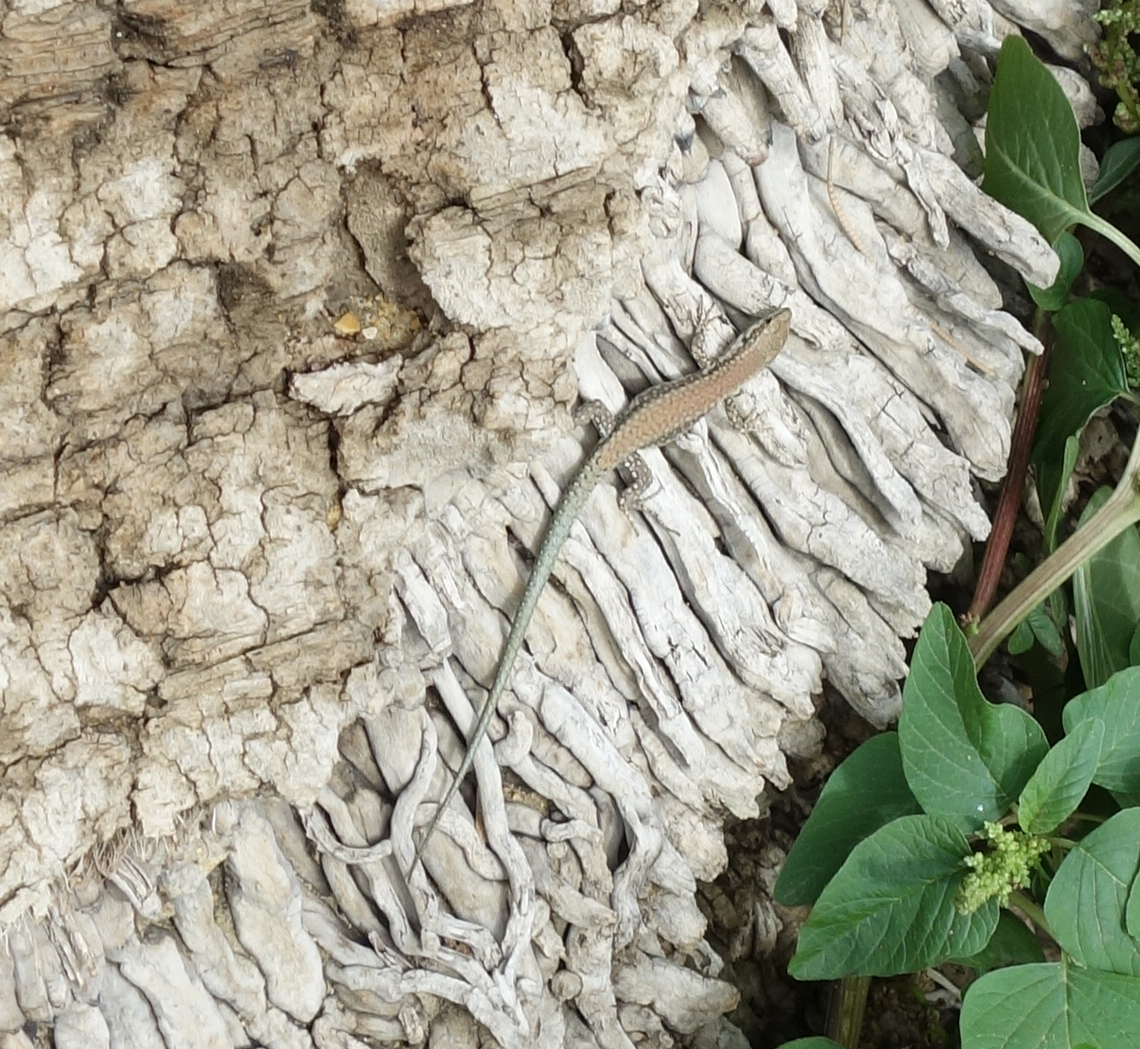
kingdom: Animalia
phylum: Chordata
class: Squamata
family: Lacertidae
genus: Podarcis
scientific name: Podarcis vaucheri
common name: Vaucher's wall lizard
